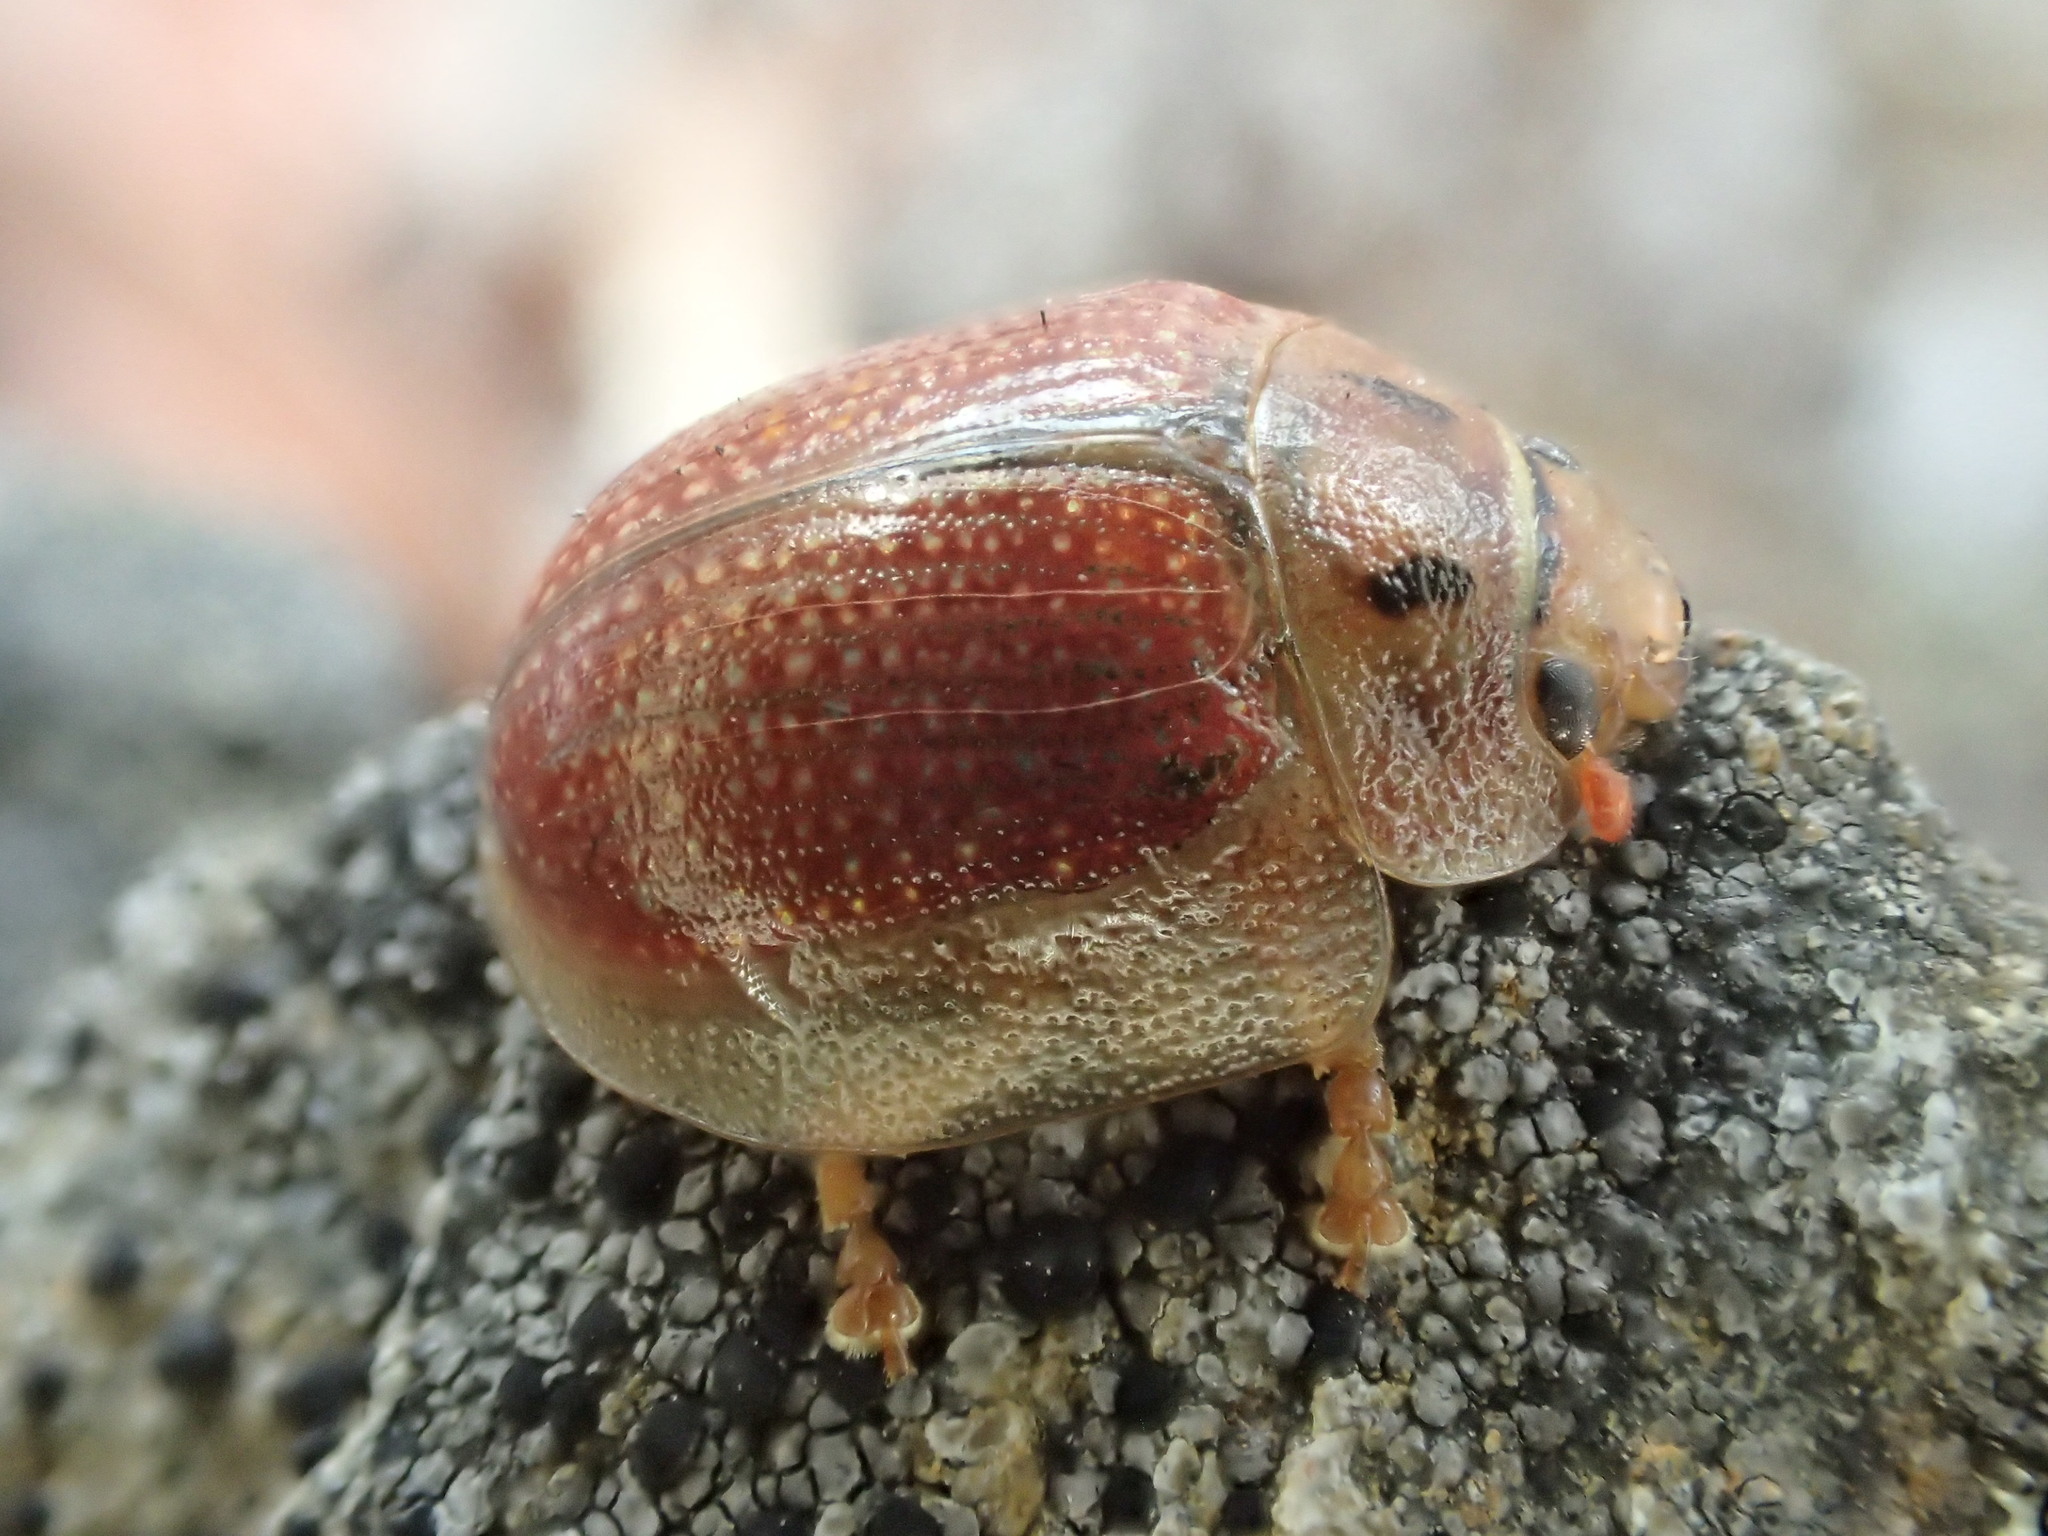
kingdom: Animalia
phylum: Arthropoda
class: Insecta
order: Coleoptera
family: Chrysomelidae
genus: Paropsisterna
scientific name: Paropsisterna bimaculata
